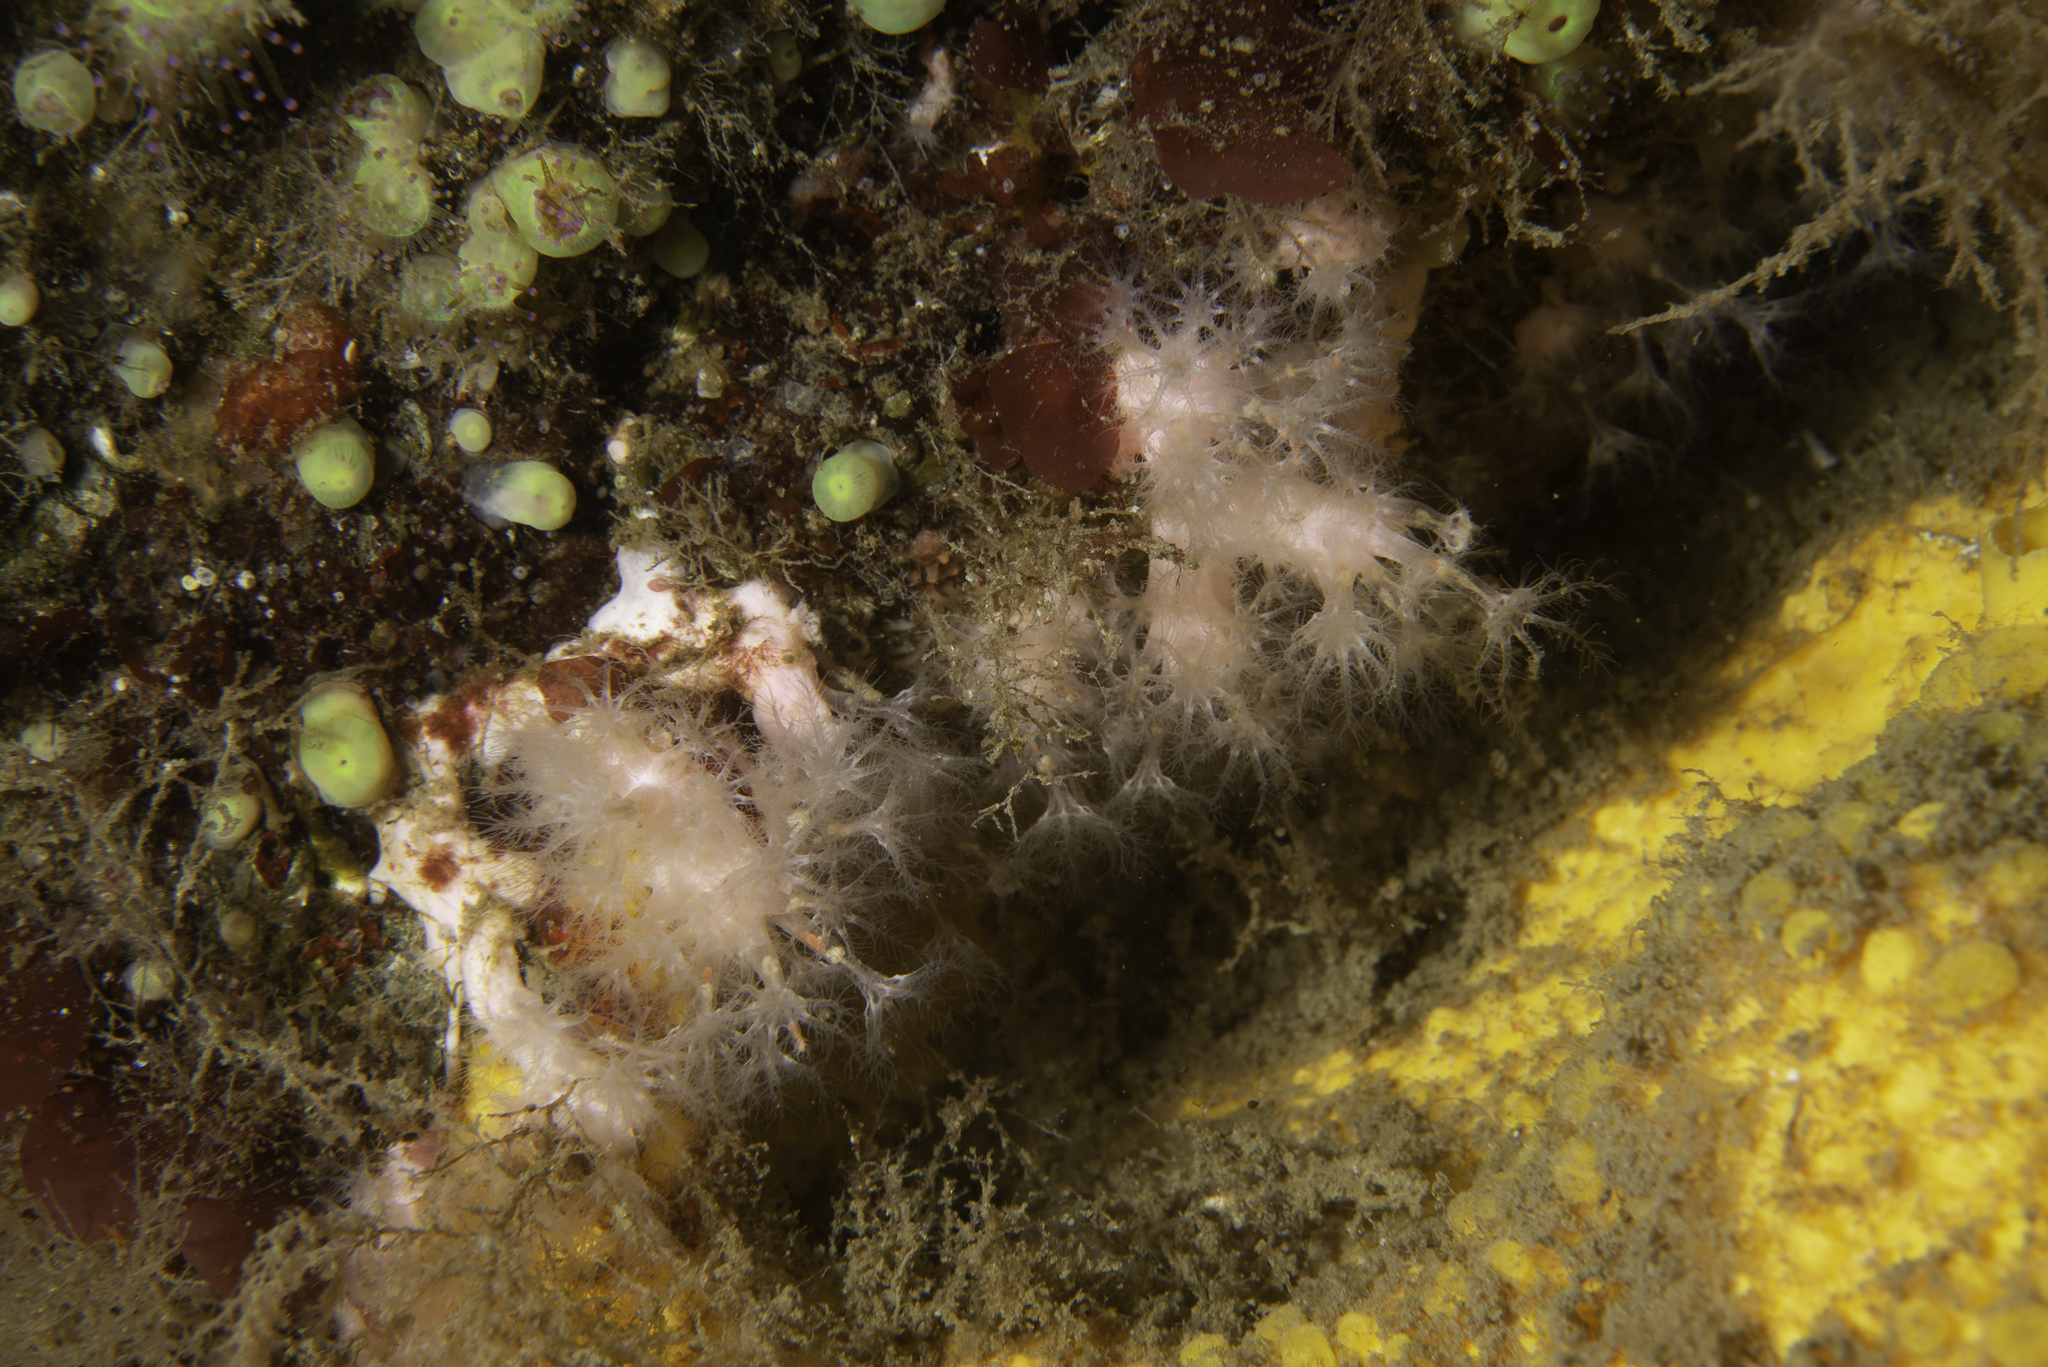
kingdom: Animalia
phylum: Cnidaria
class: Anthozoa
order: Malacalcyonacea
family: Alcyoniidae
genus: Alcyonium
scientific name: Alcyonium hibernicum
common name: Pink sea fingers
